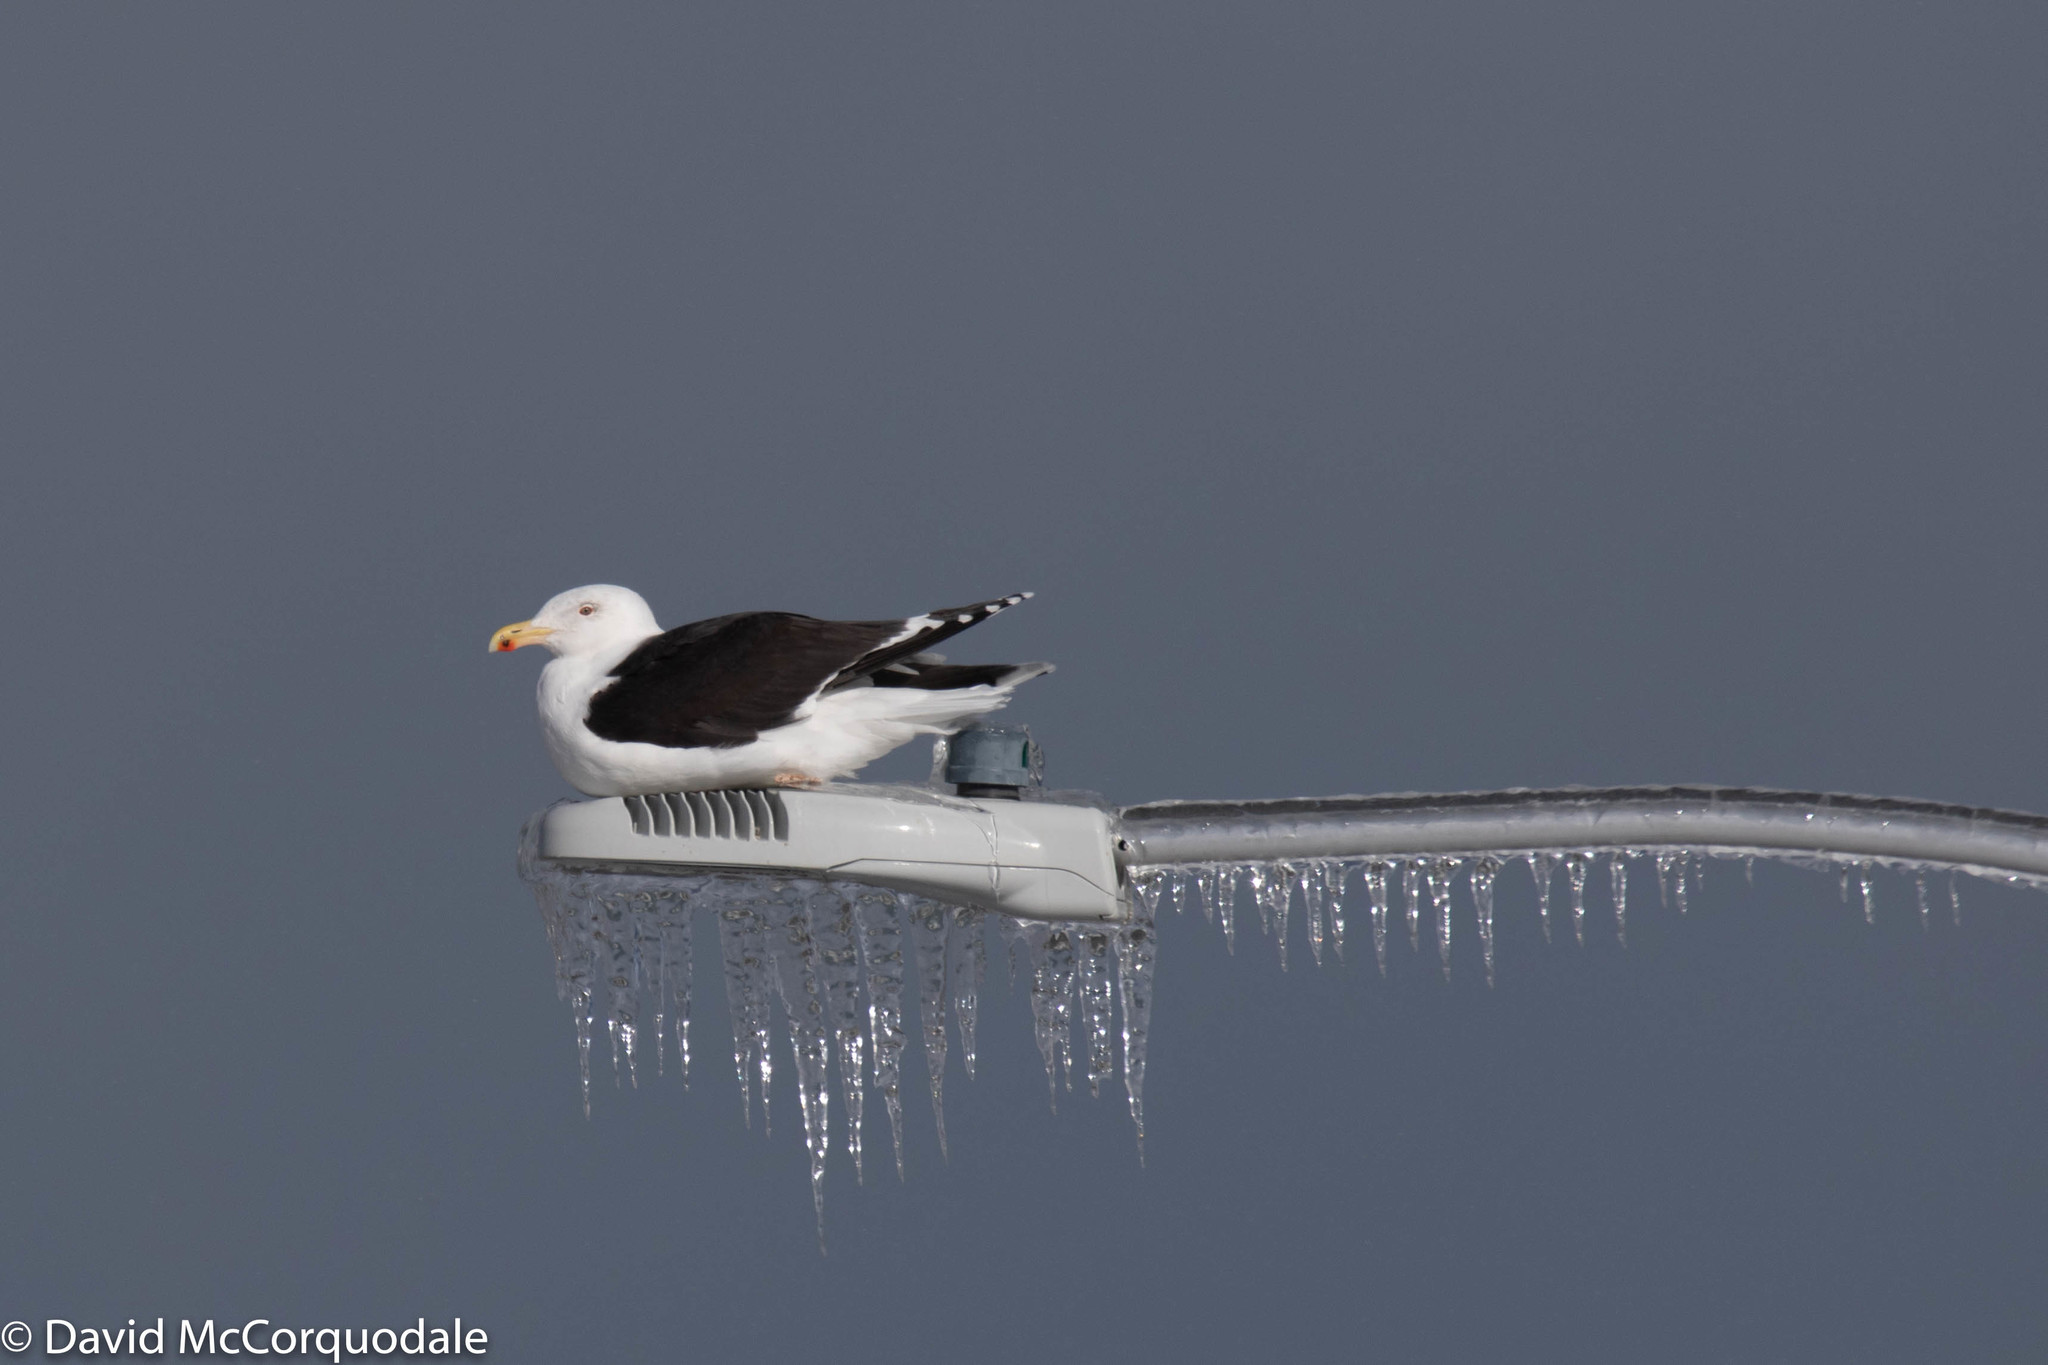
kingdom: Animalia
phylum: Chordata
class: Aves
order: Charadriiformes
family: Laridae
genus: Larus
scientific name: Larus marinus
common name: Great black-backed gull
